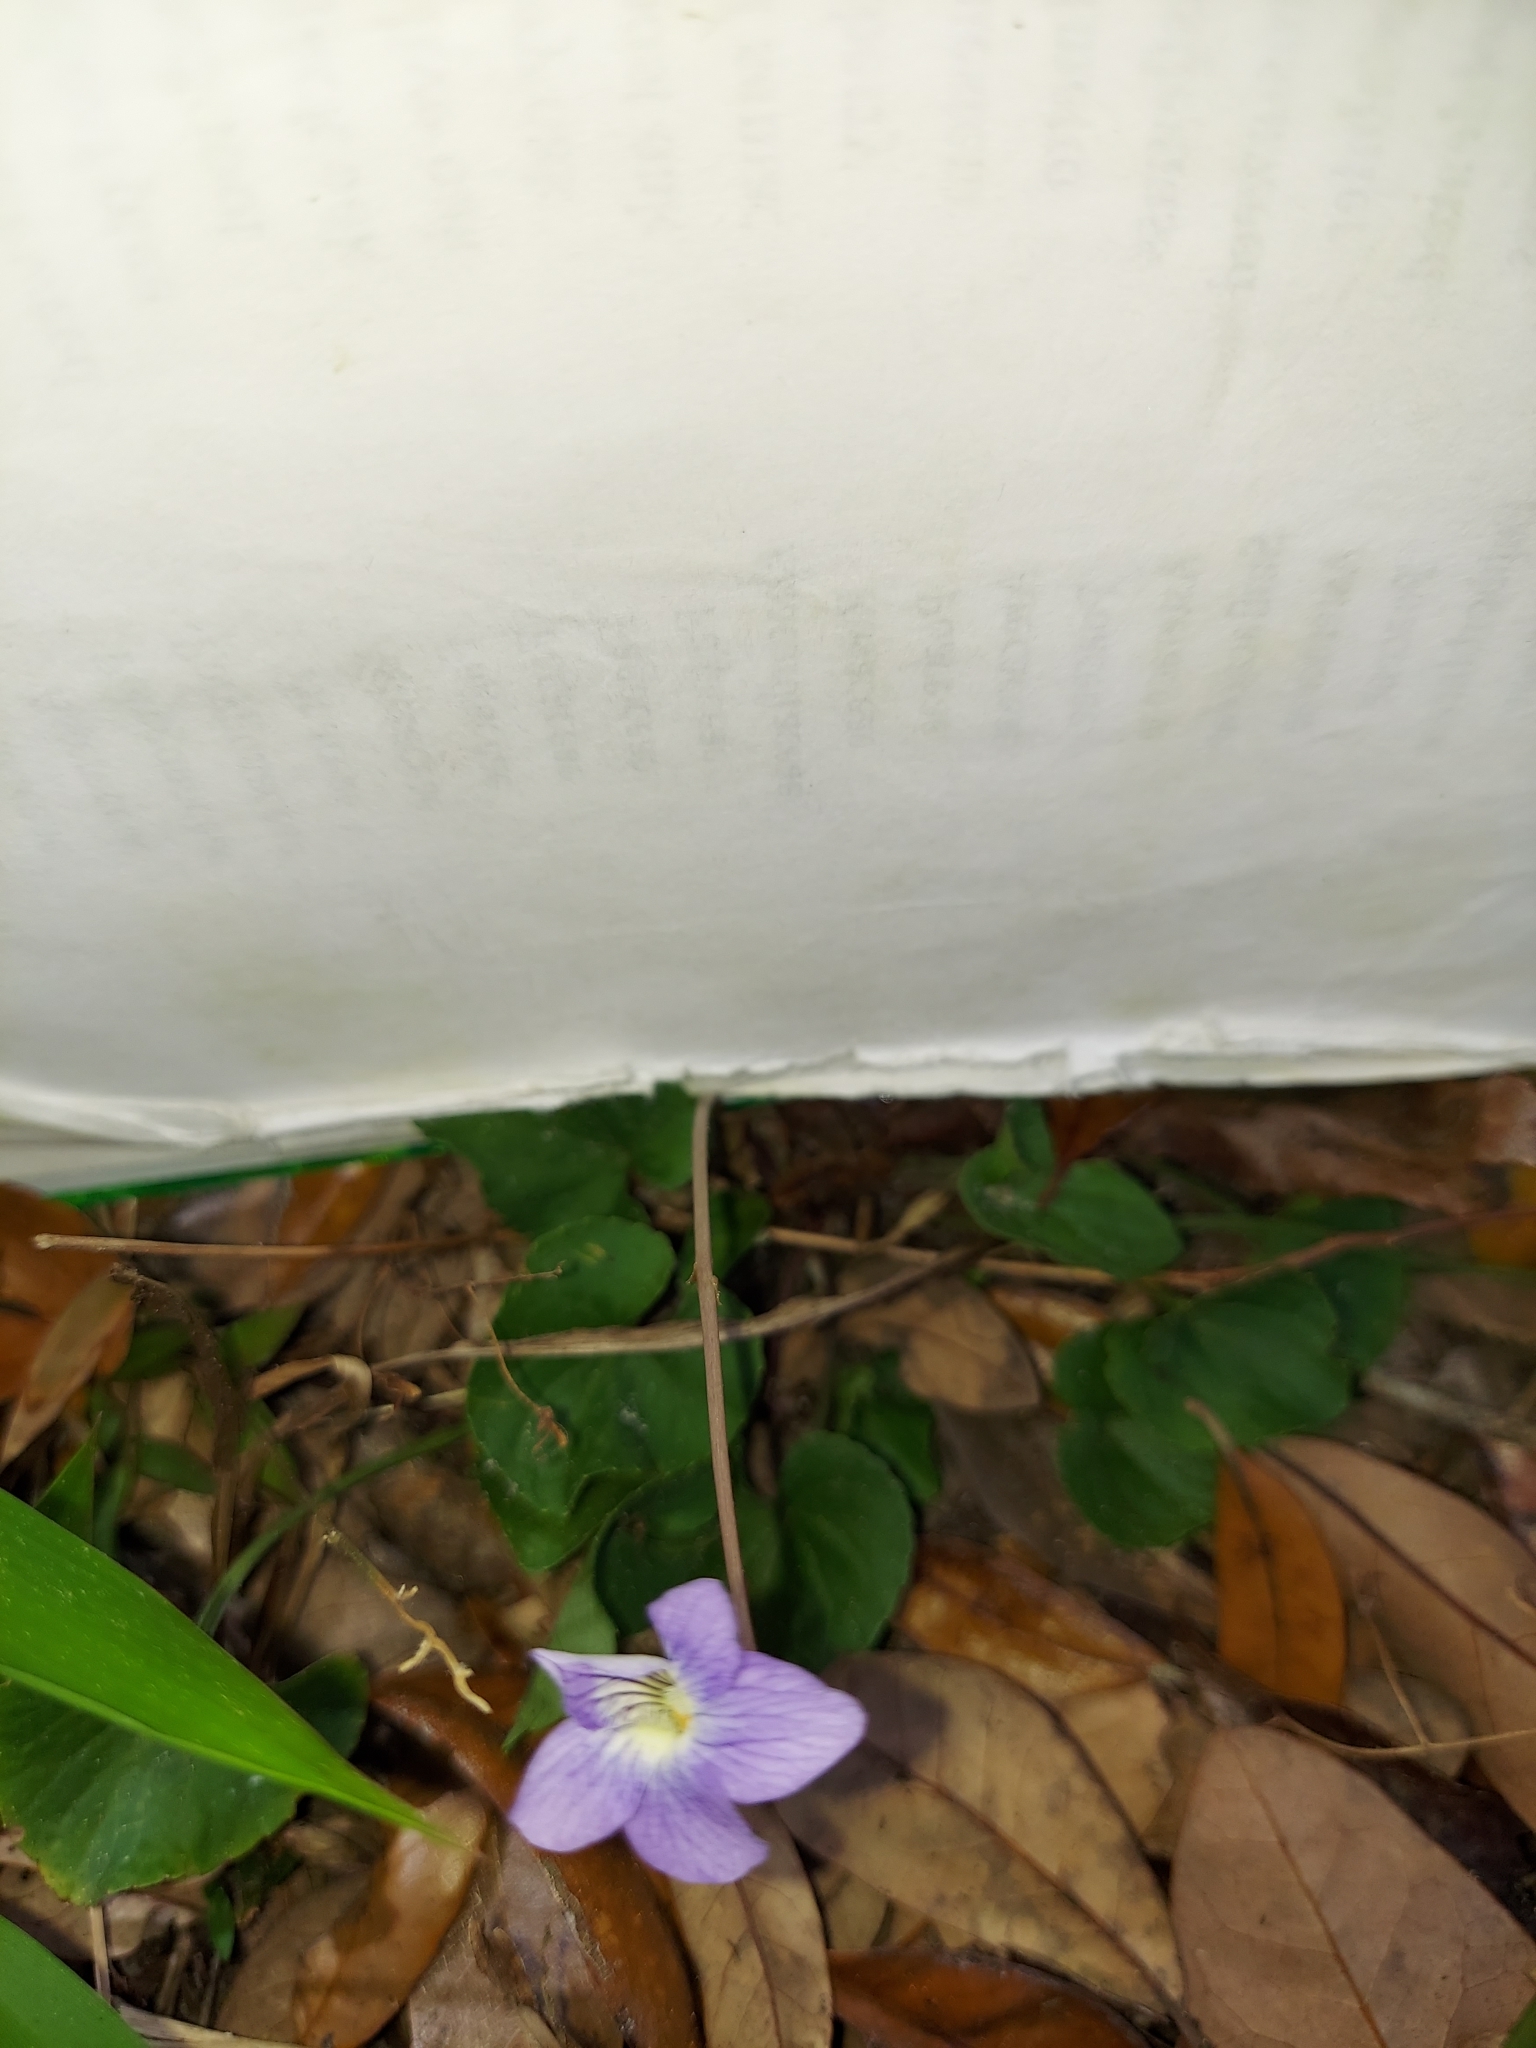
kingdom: Plantae
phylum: Tracheophyta
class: Magnoliopsida
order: Malpighiales
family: Violaceae
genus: Viola
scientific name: Viola sororia
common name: Dooryard violet
